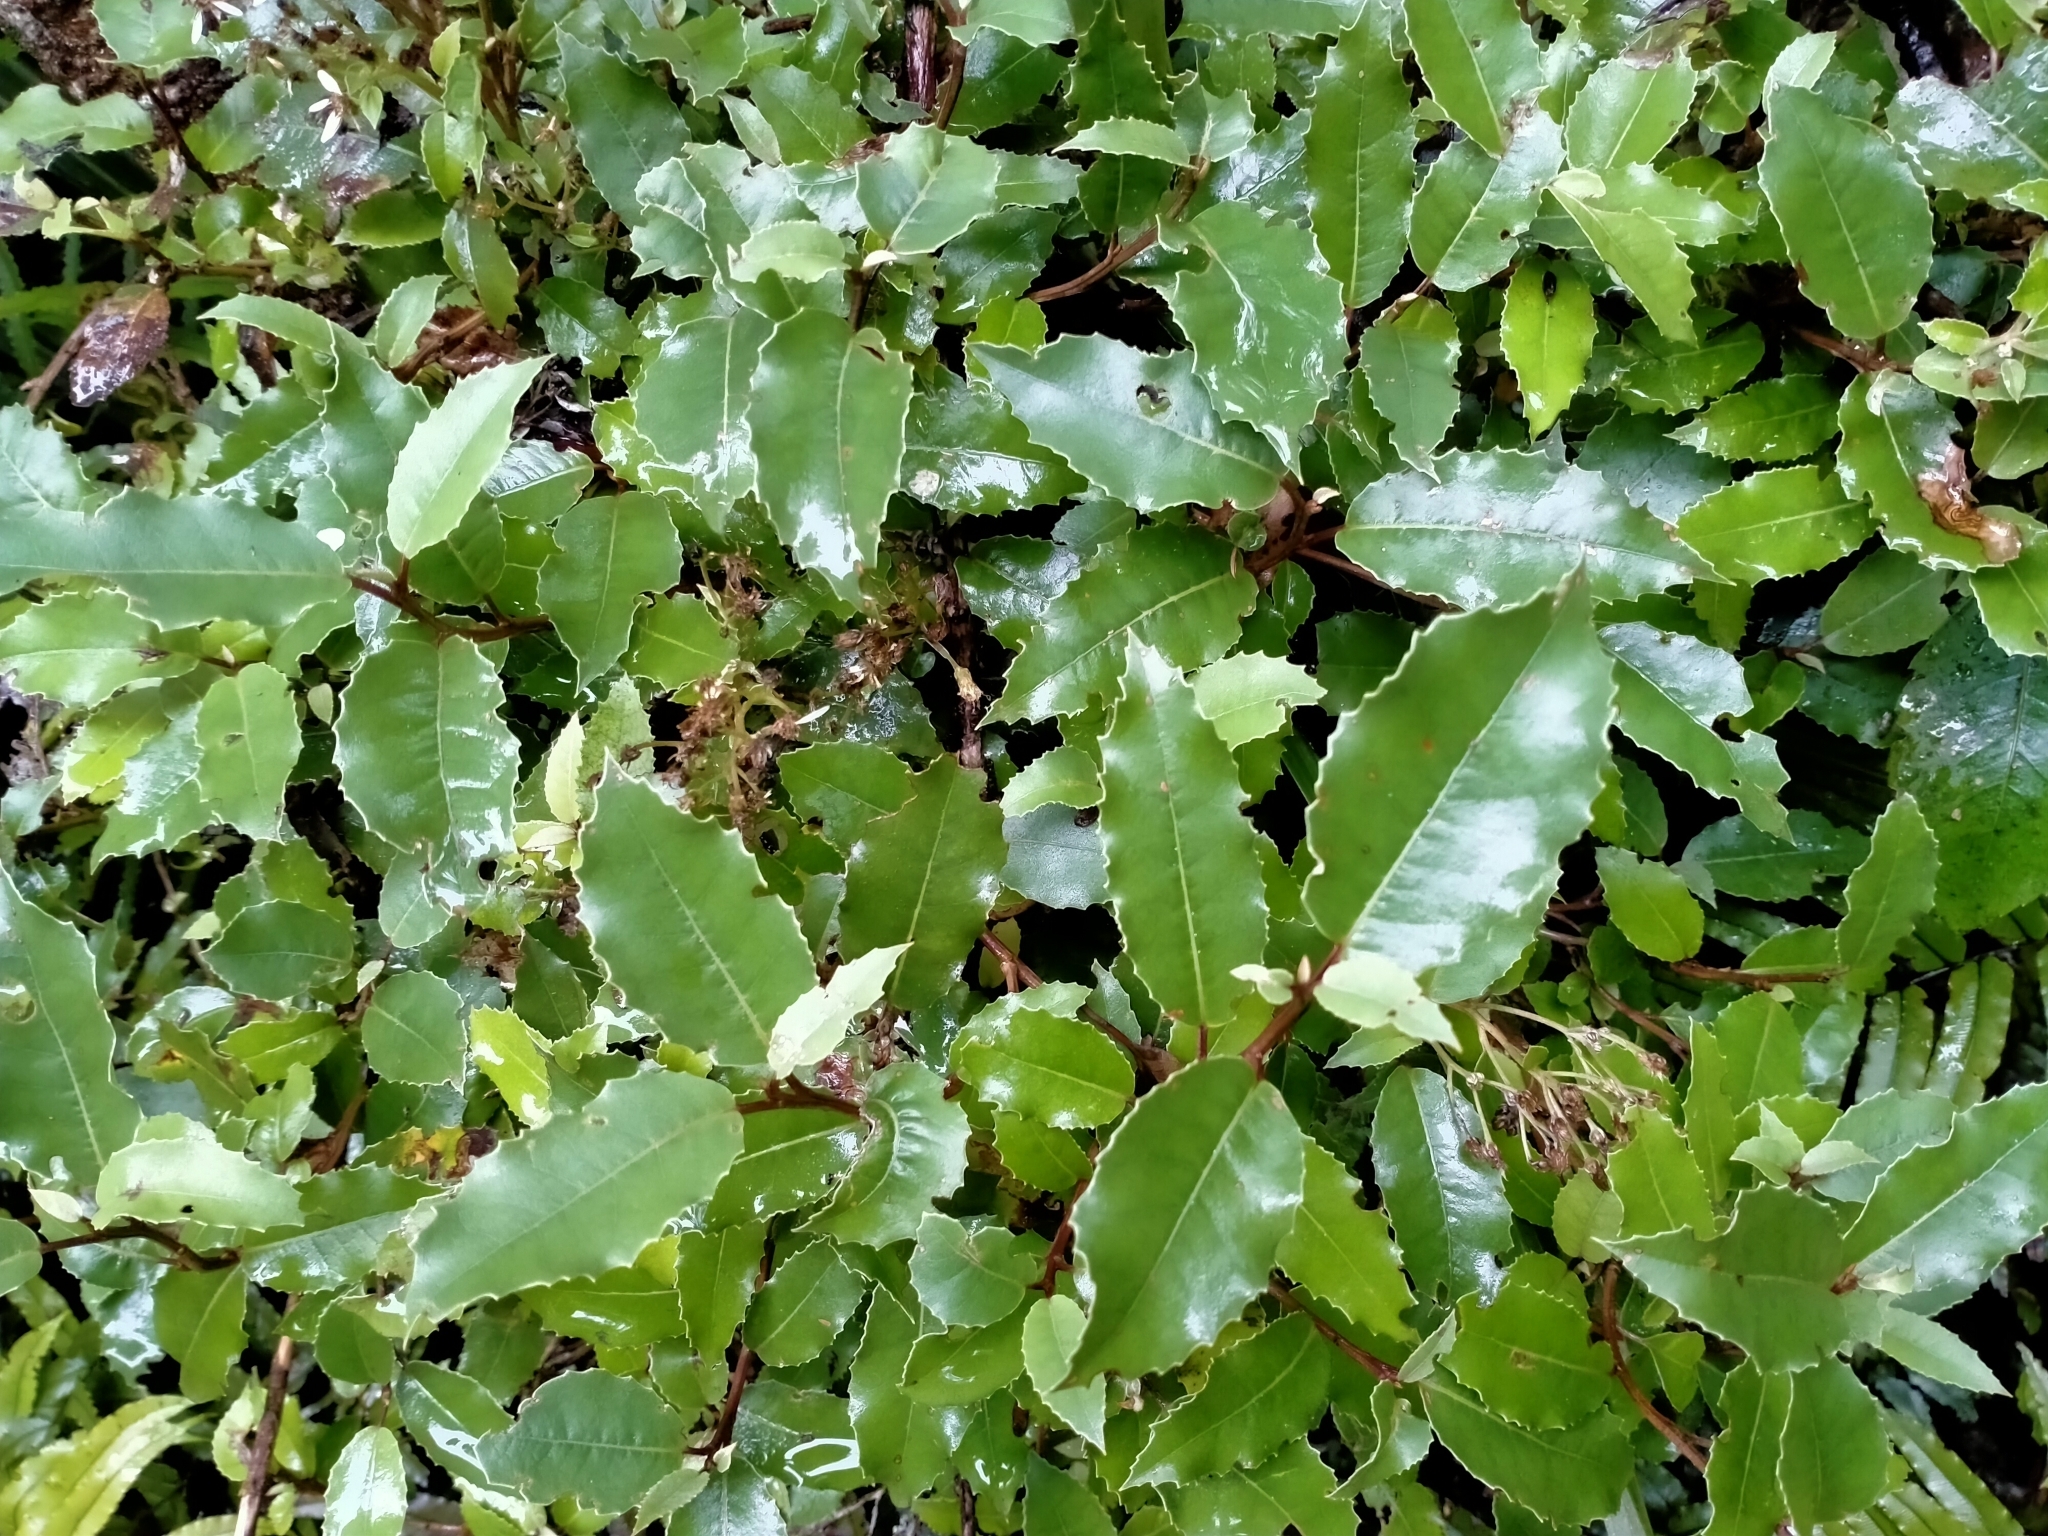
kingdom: Plantae
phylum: Tracheophyta
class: Magnoliopsida
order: Asterales
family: Asteraceae
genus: Olearia
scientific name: Olearia macrodonta
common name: New zealand holly
